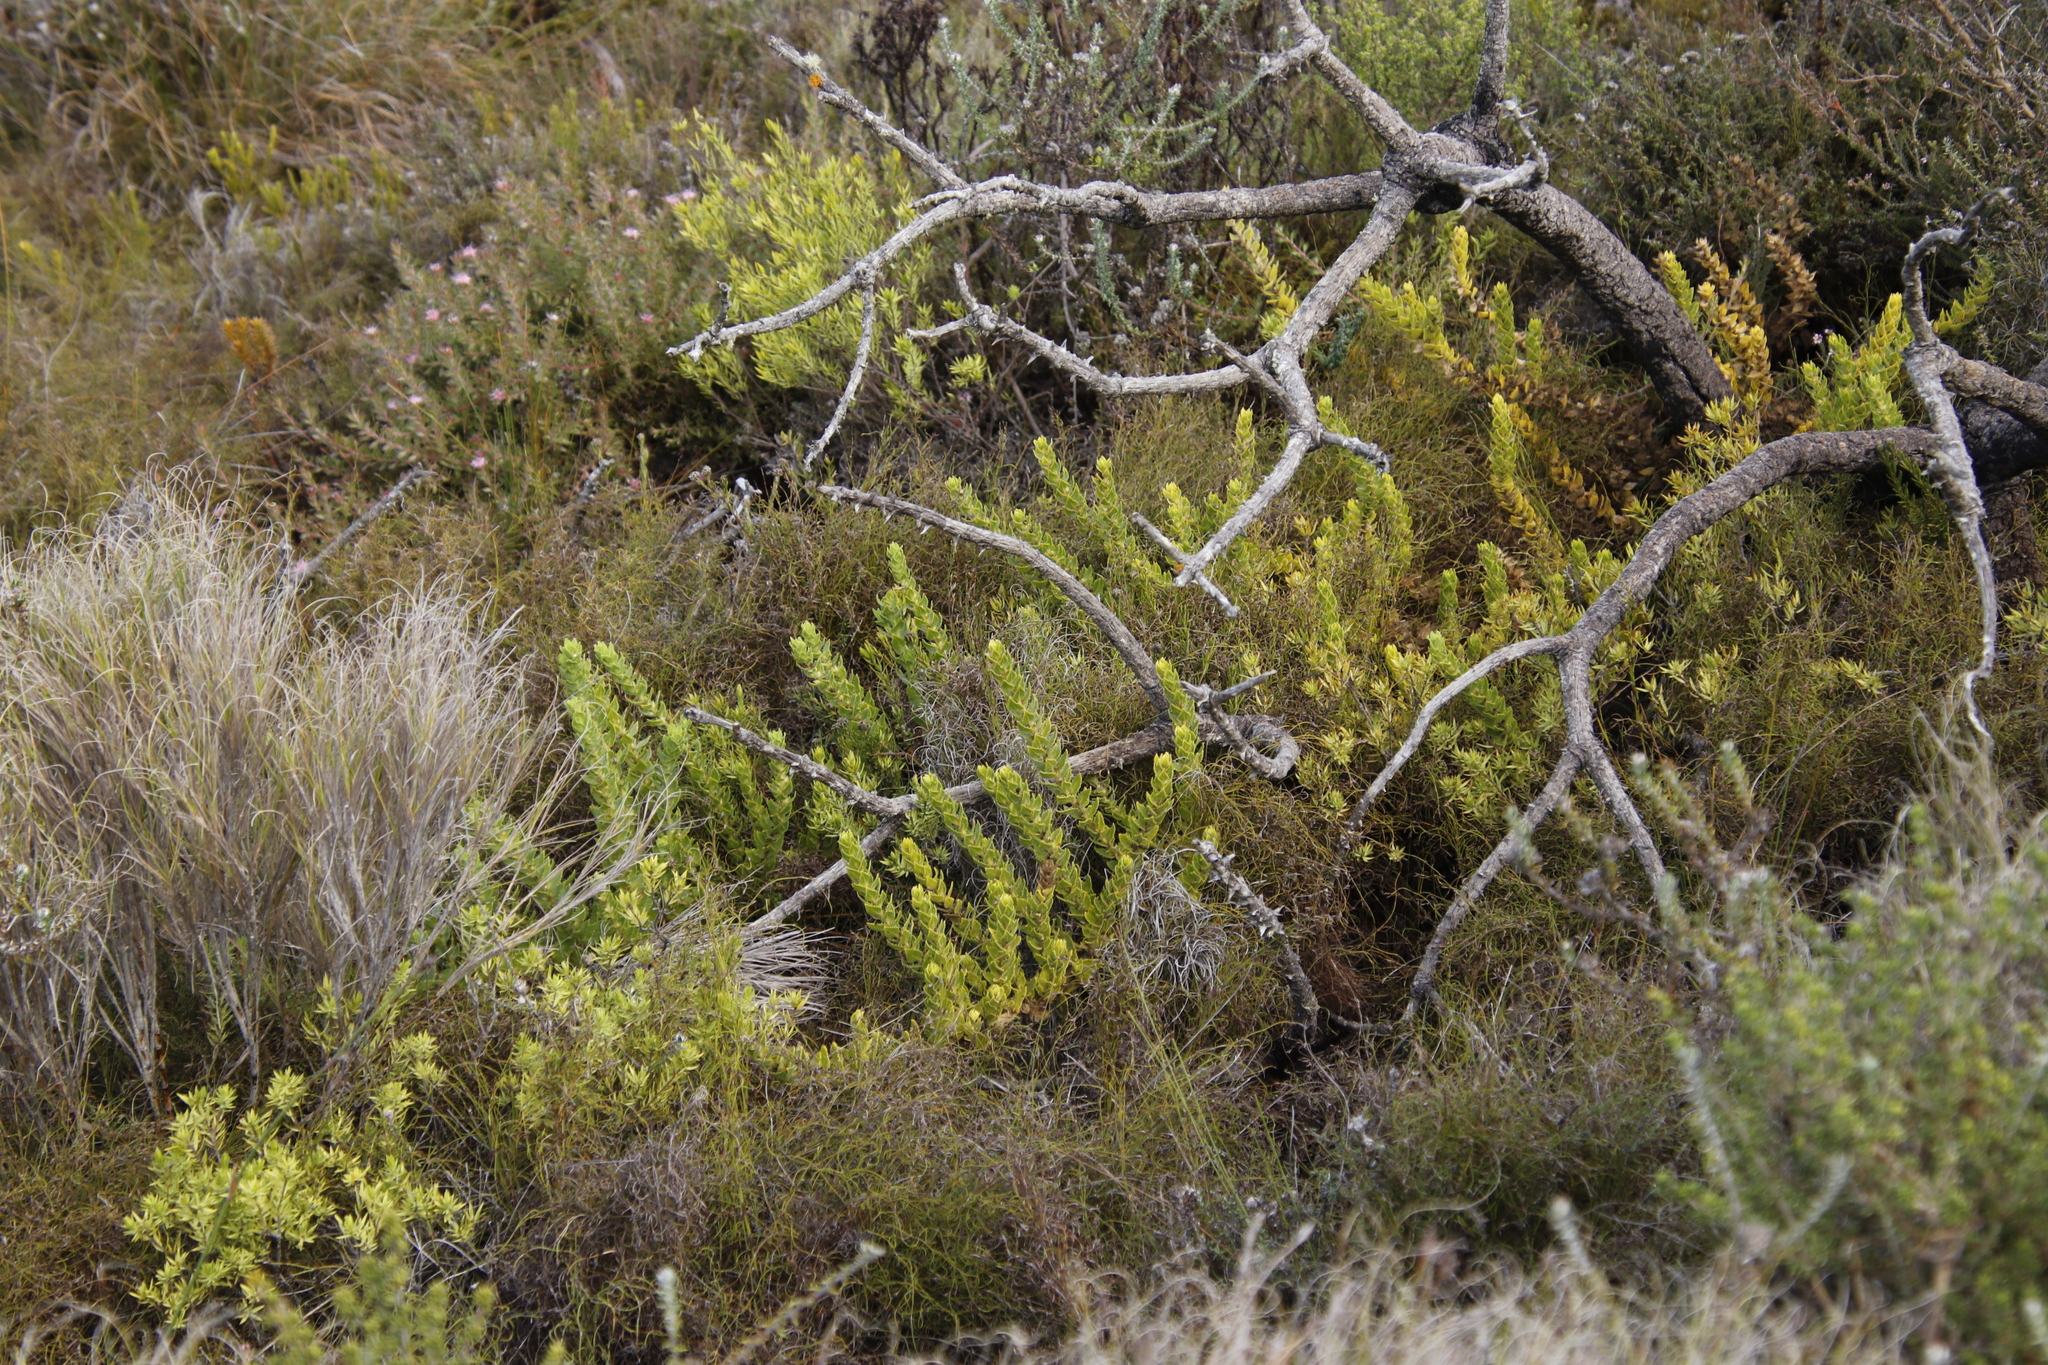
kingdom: Plantae
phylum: Tracheophyta
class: Magnoliopsida
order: Lamiales
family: Scrophulariaceae
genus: Oftia
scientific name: Oftia africana
